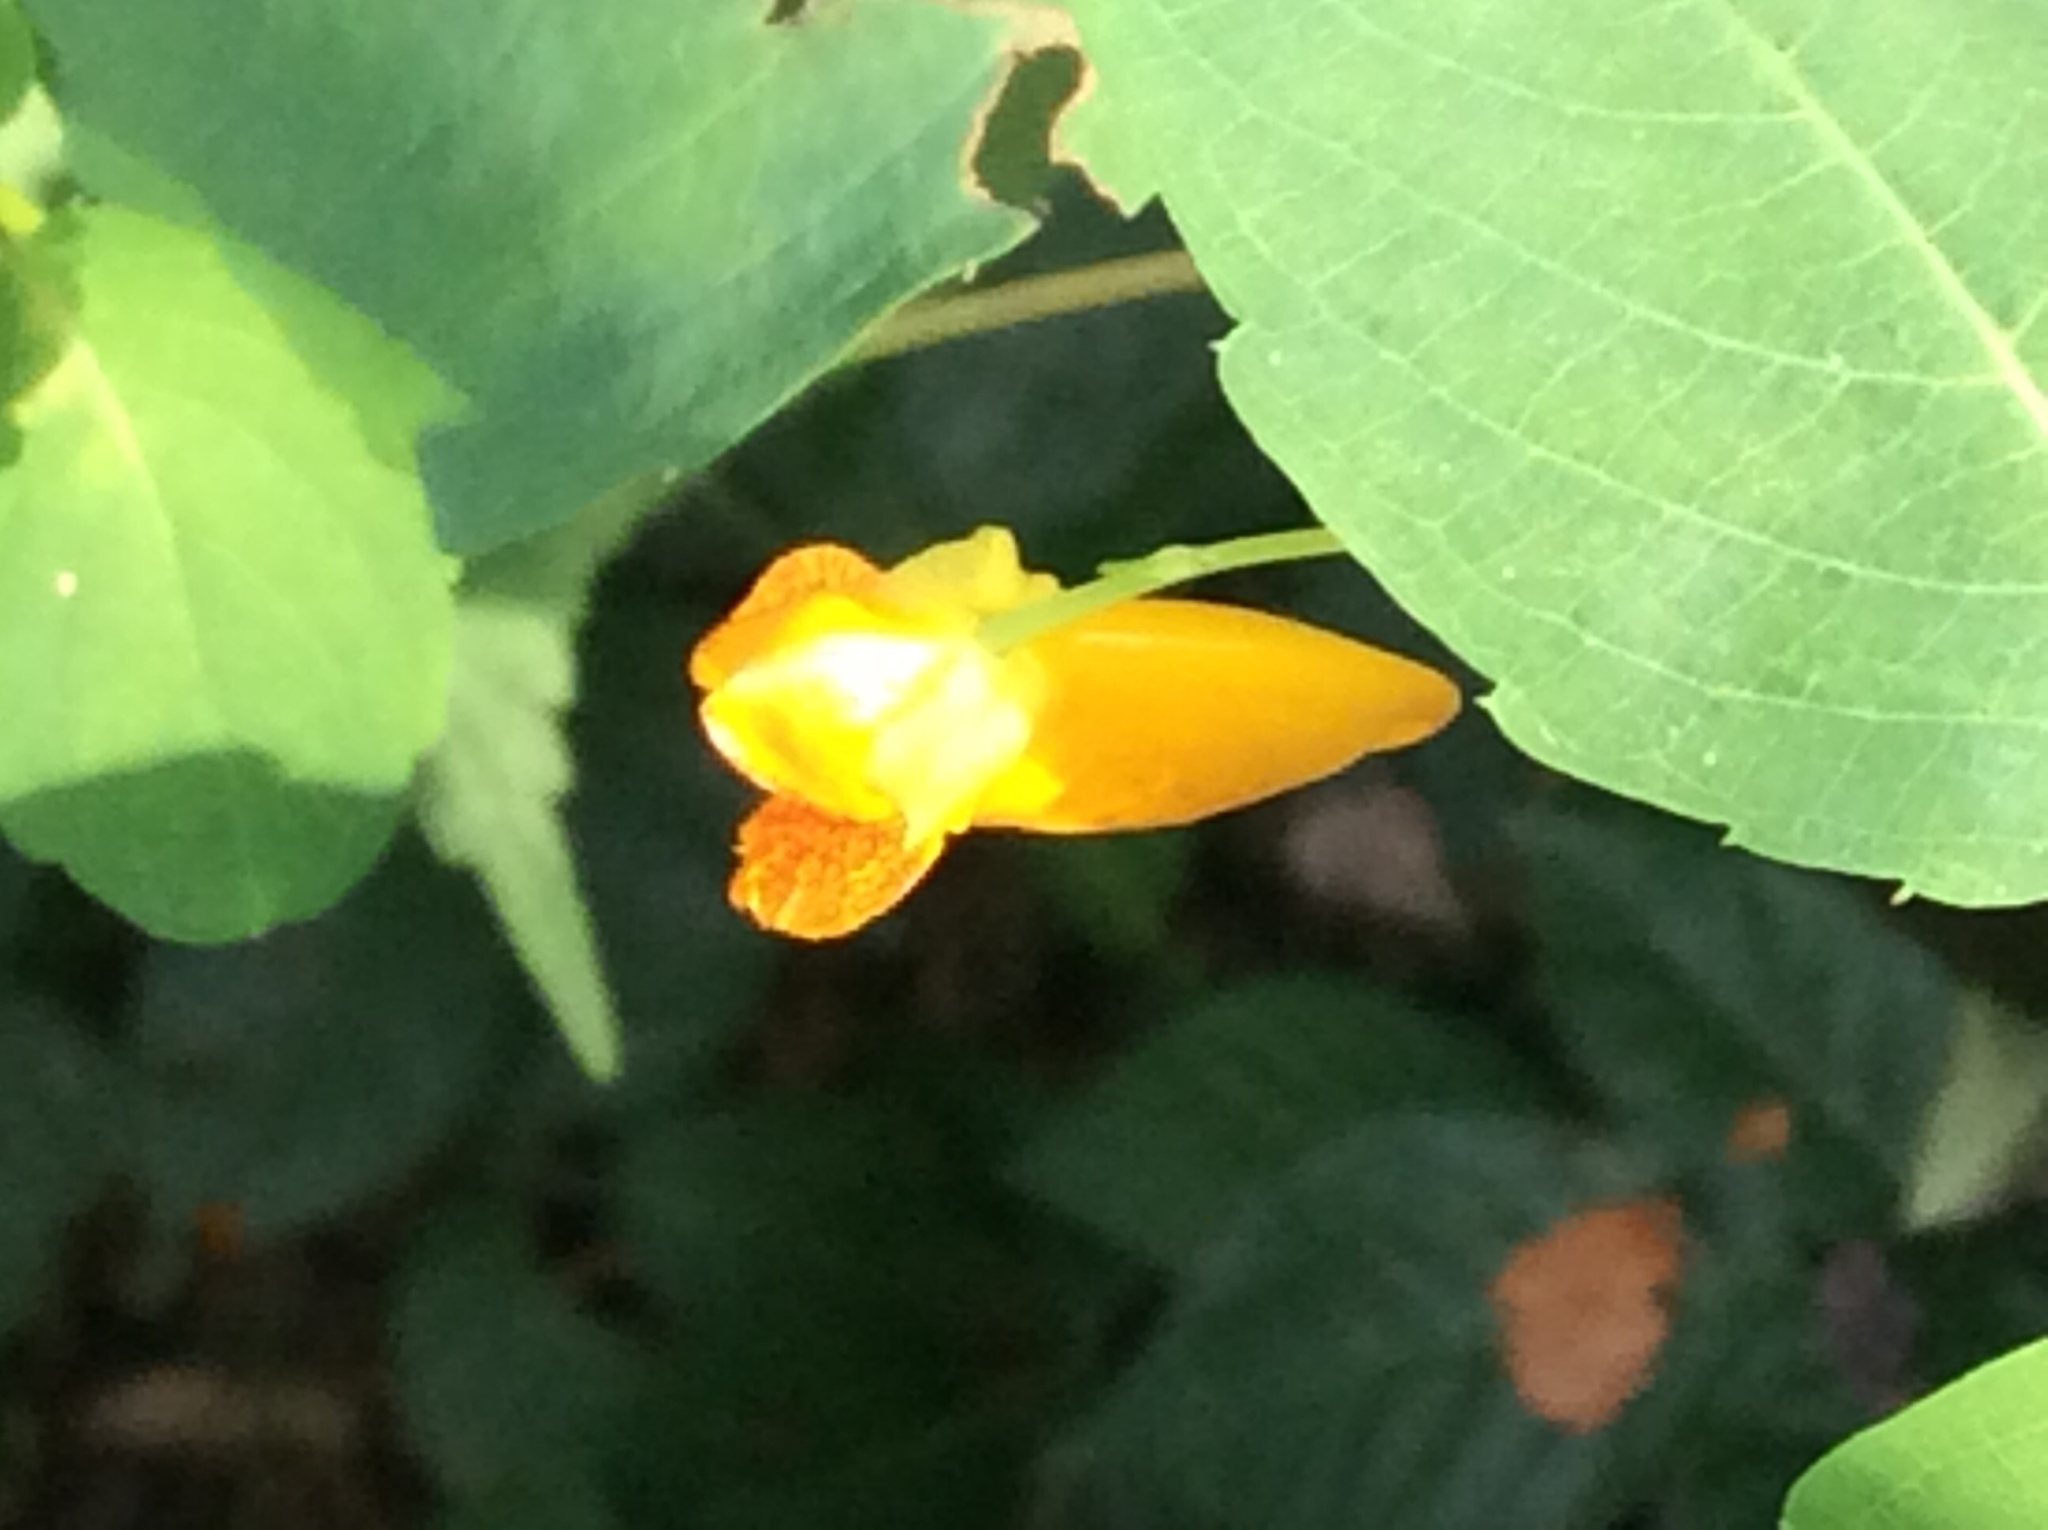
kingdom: Plantae
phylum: Tracheophyta
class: Magnoliopsida
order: Ericales
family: Balsaminaceae
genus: Impatiens
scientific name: Impatiens capensis
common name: Orange balsam
